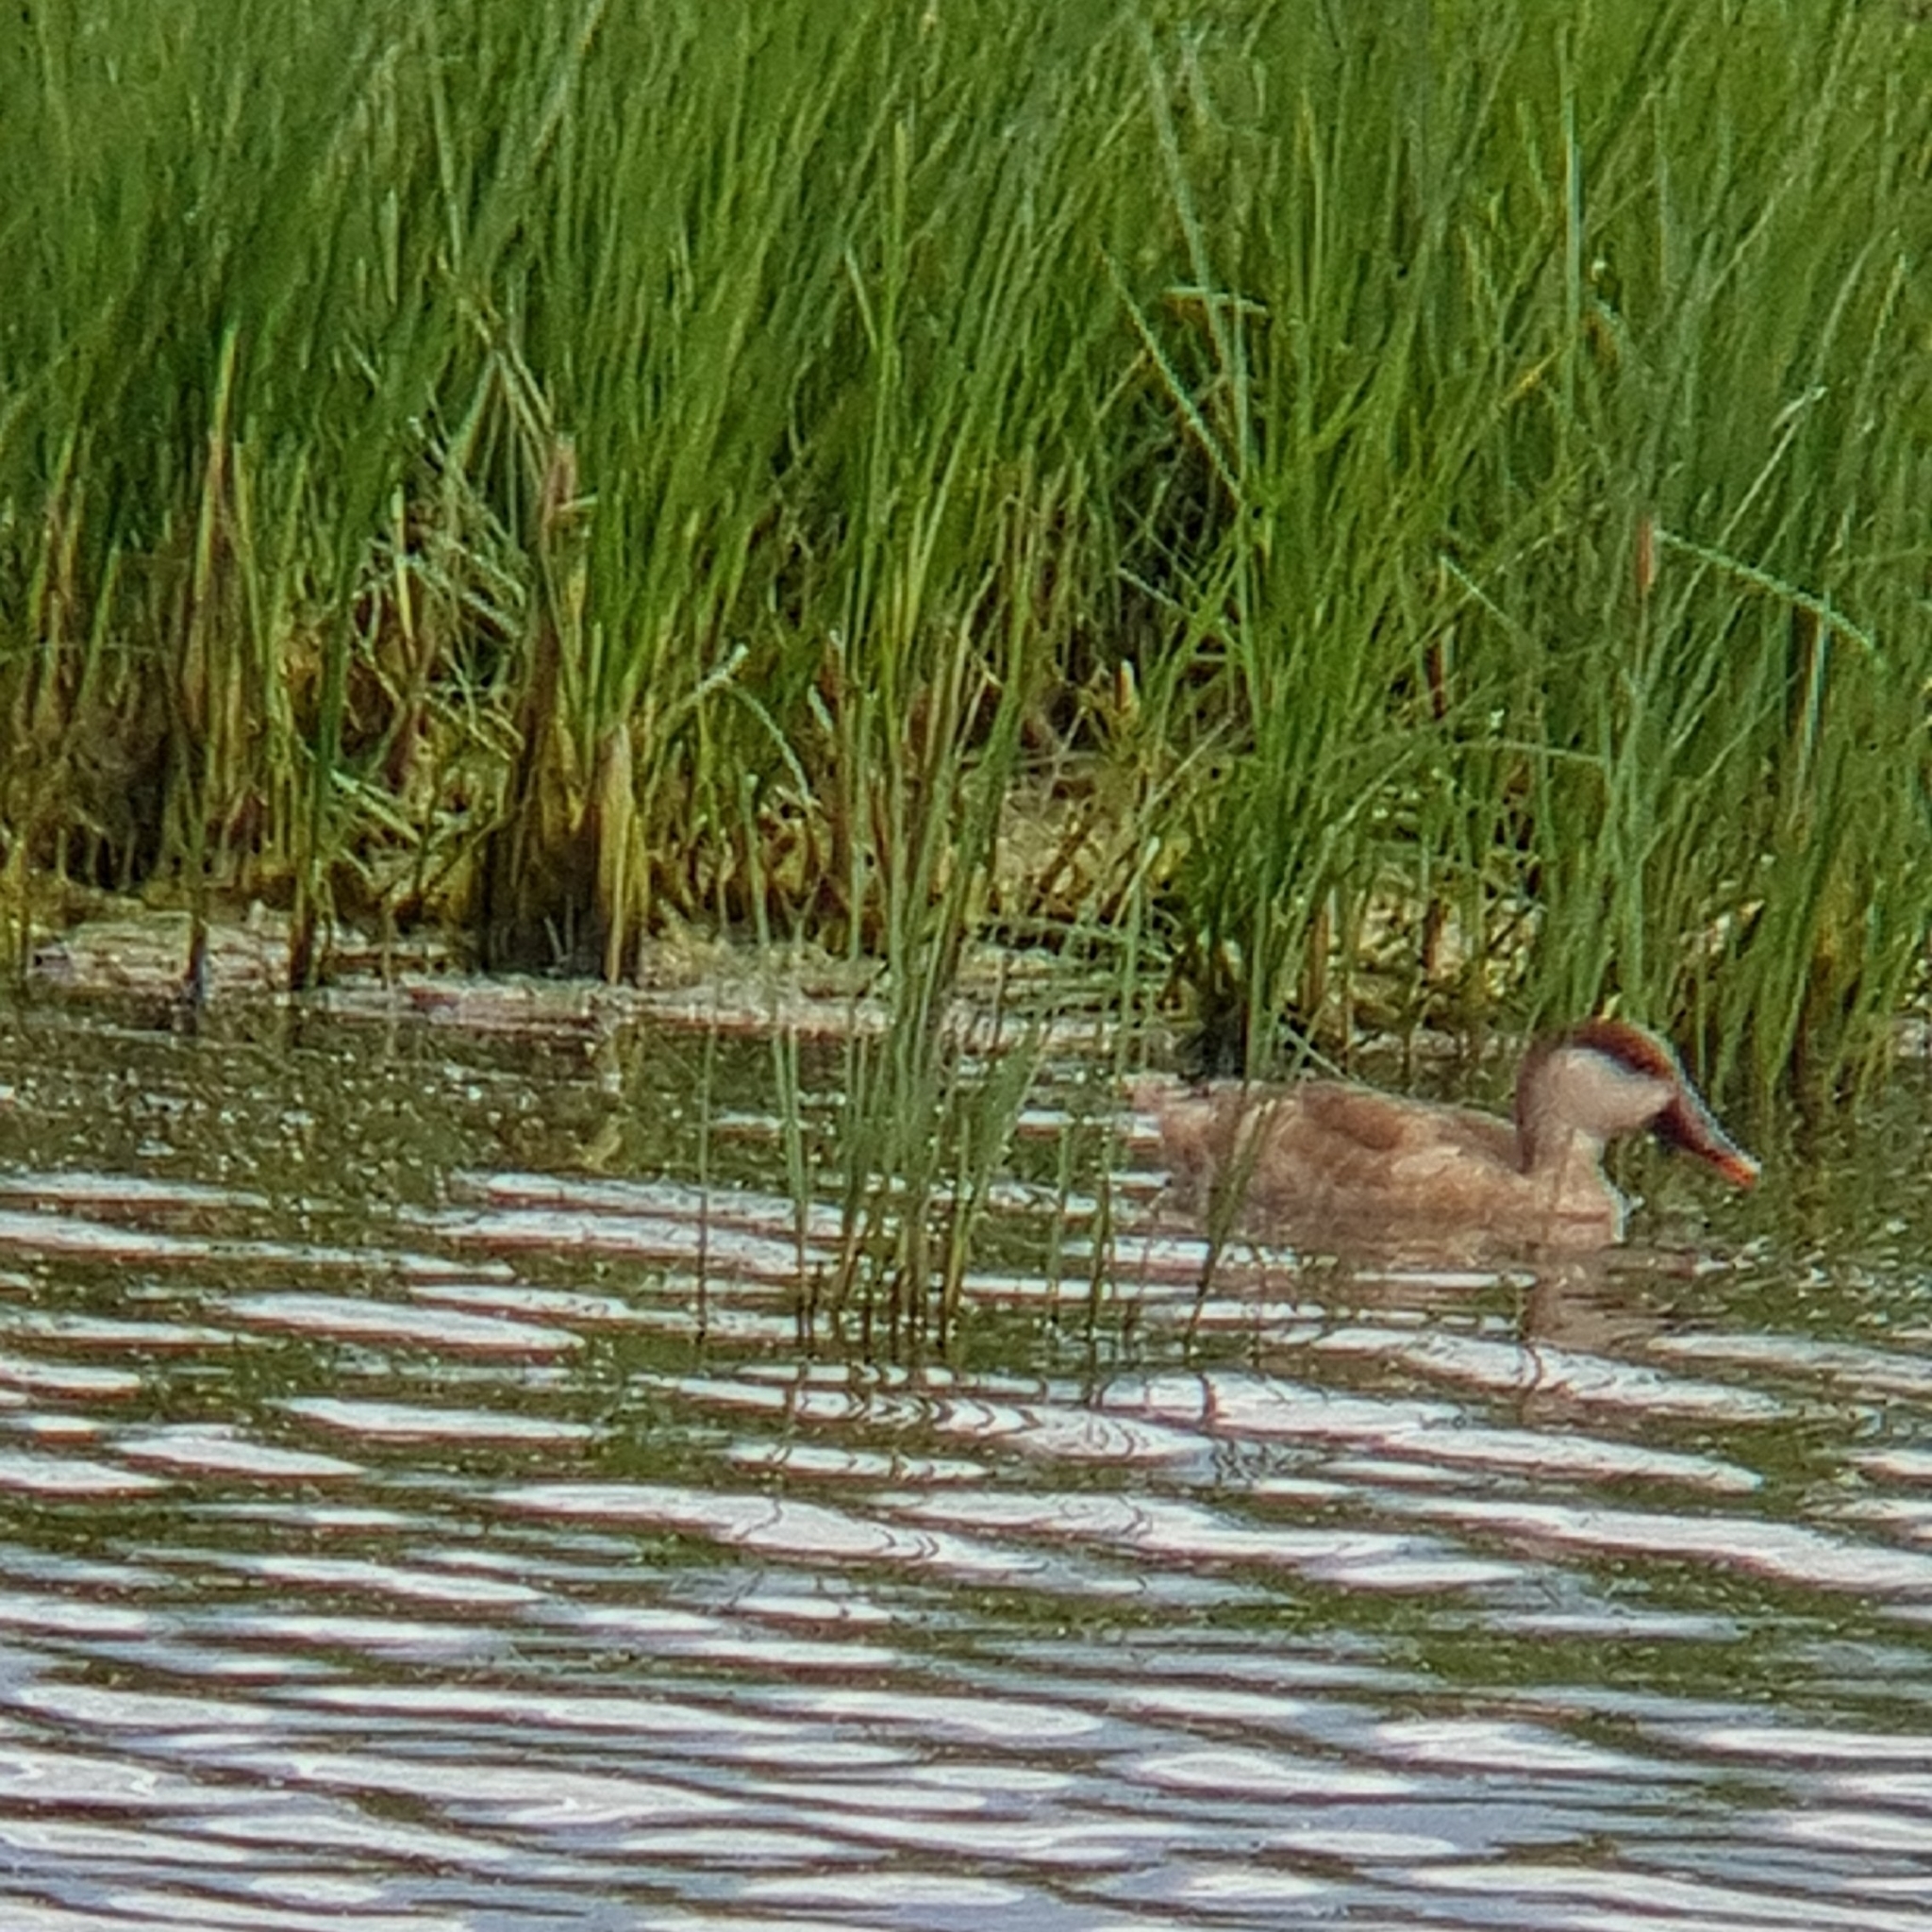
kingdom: Animalia
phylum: Chordata
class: Aves
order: Anseriformes
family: Anatidae
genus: Netta
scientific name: Netta rufina
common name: Red-crested pochard
